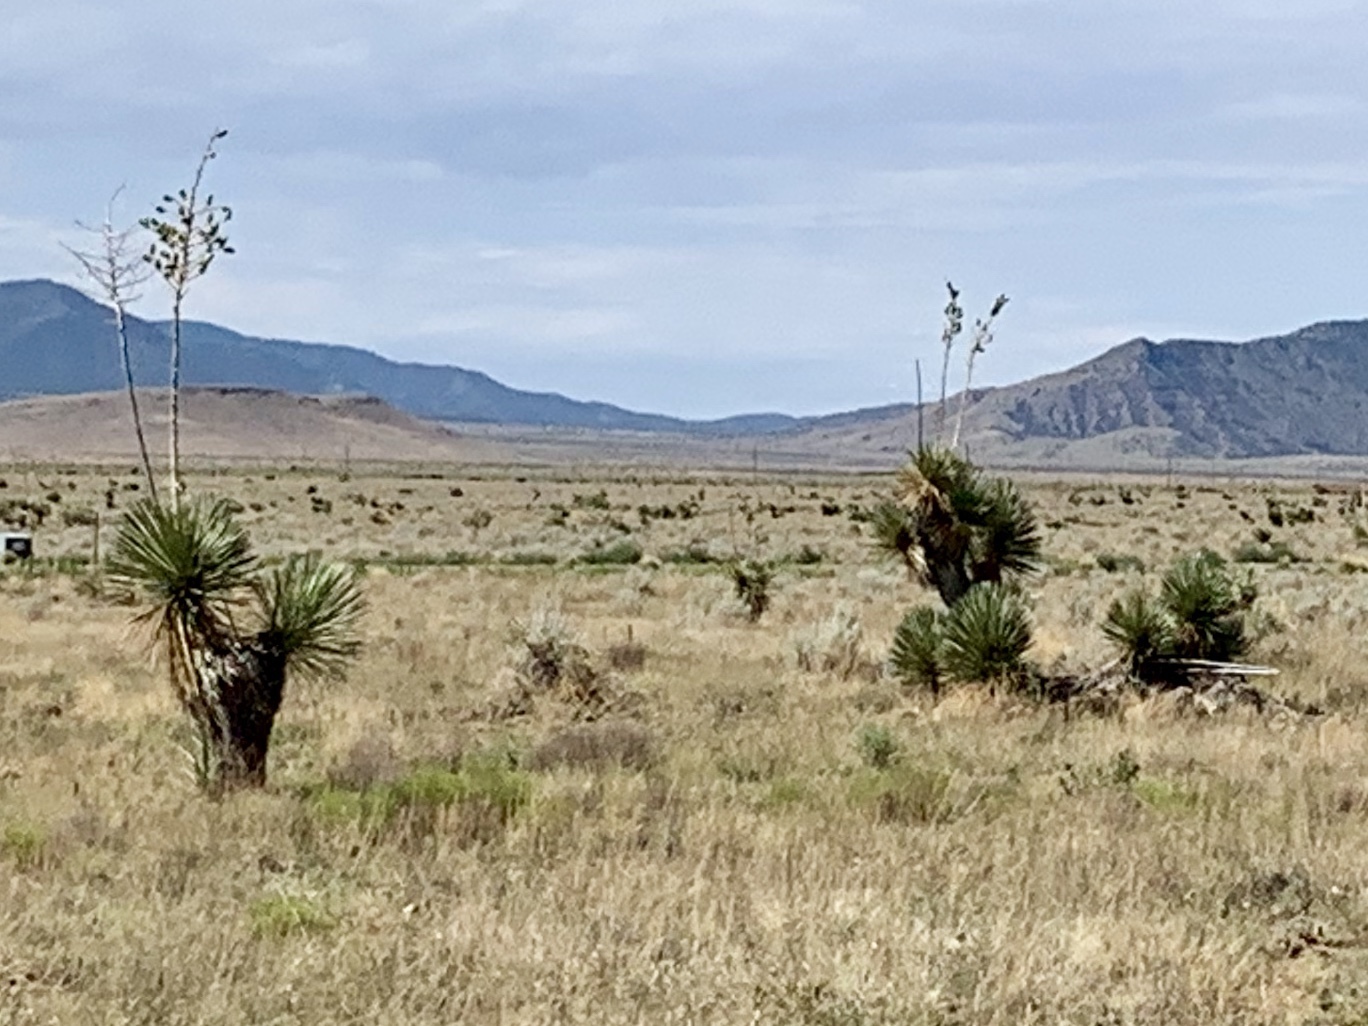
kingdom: Plantae
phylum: Tracheophyta
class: Liliopsida
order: Asparagales
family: Asparagaceae
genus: Yucca
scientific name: Yucca elata
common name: Palmella
